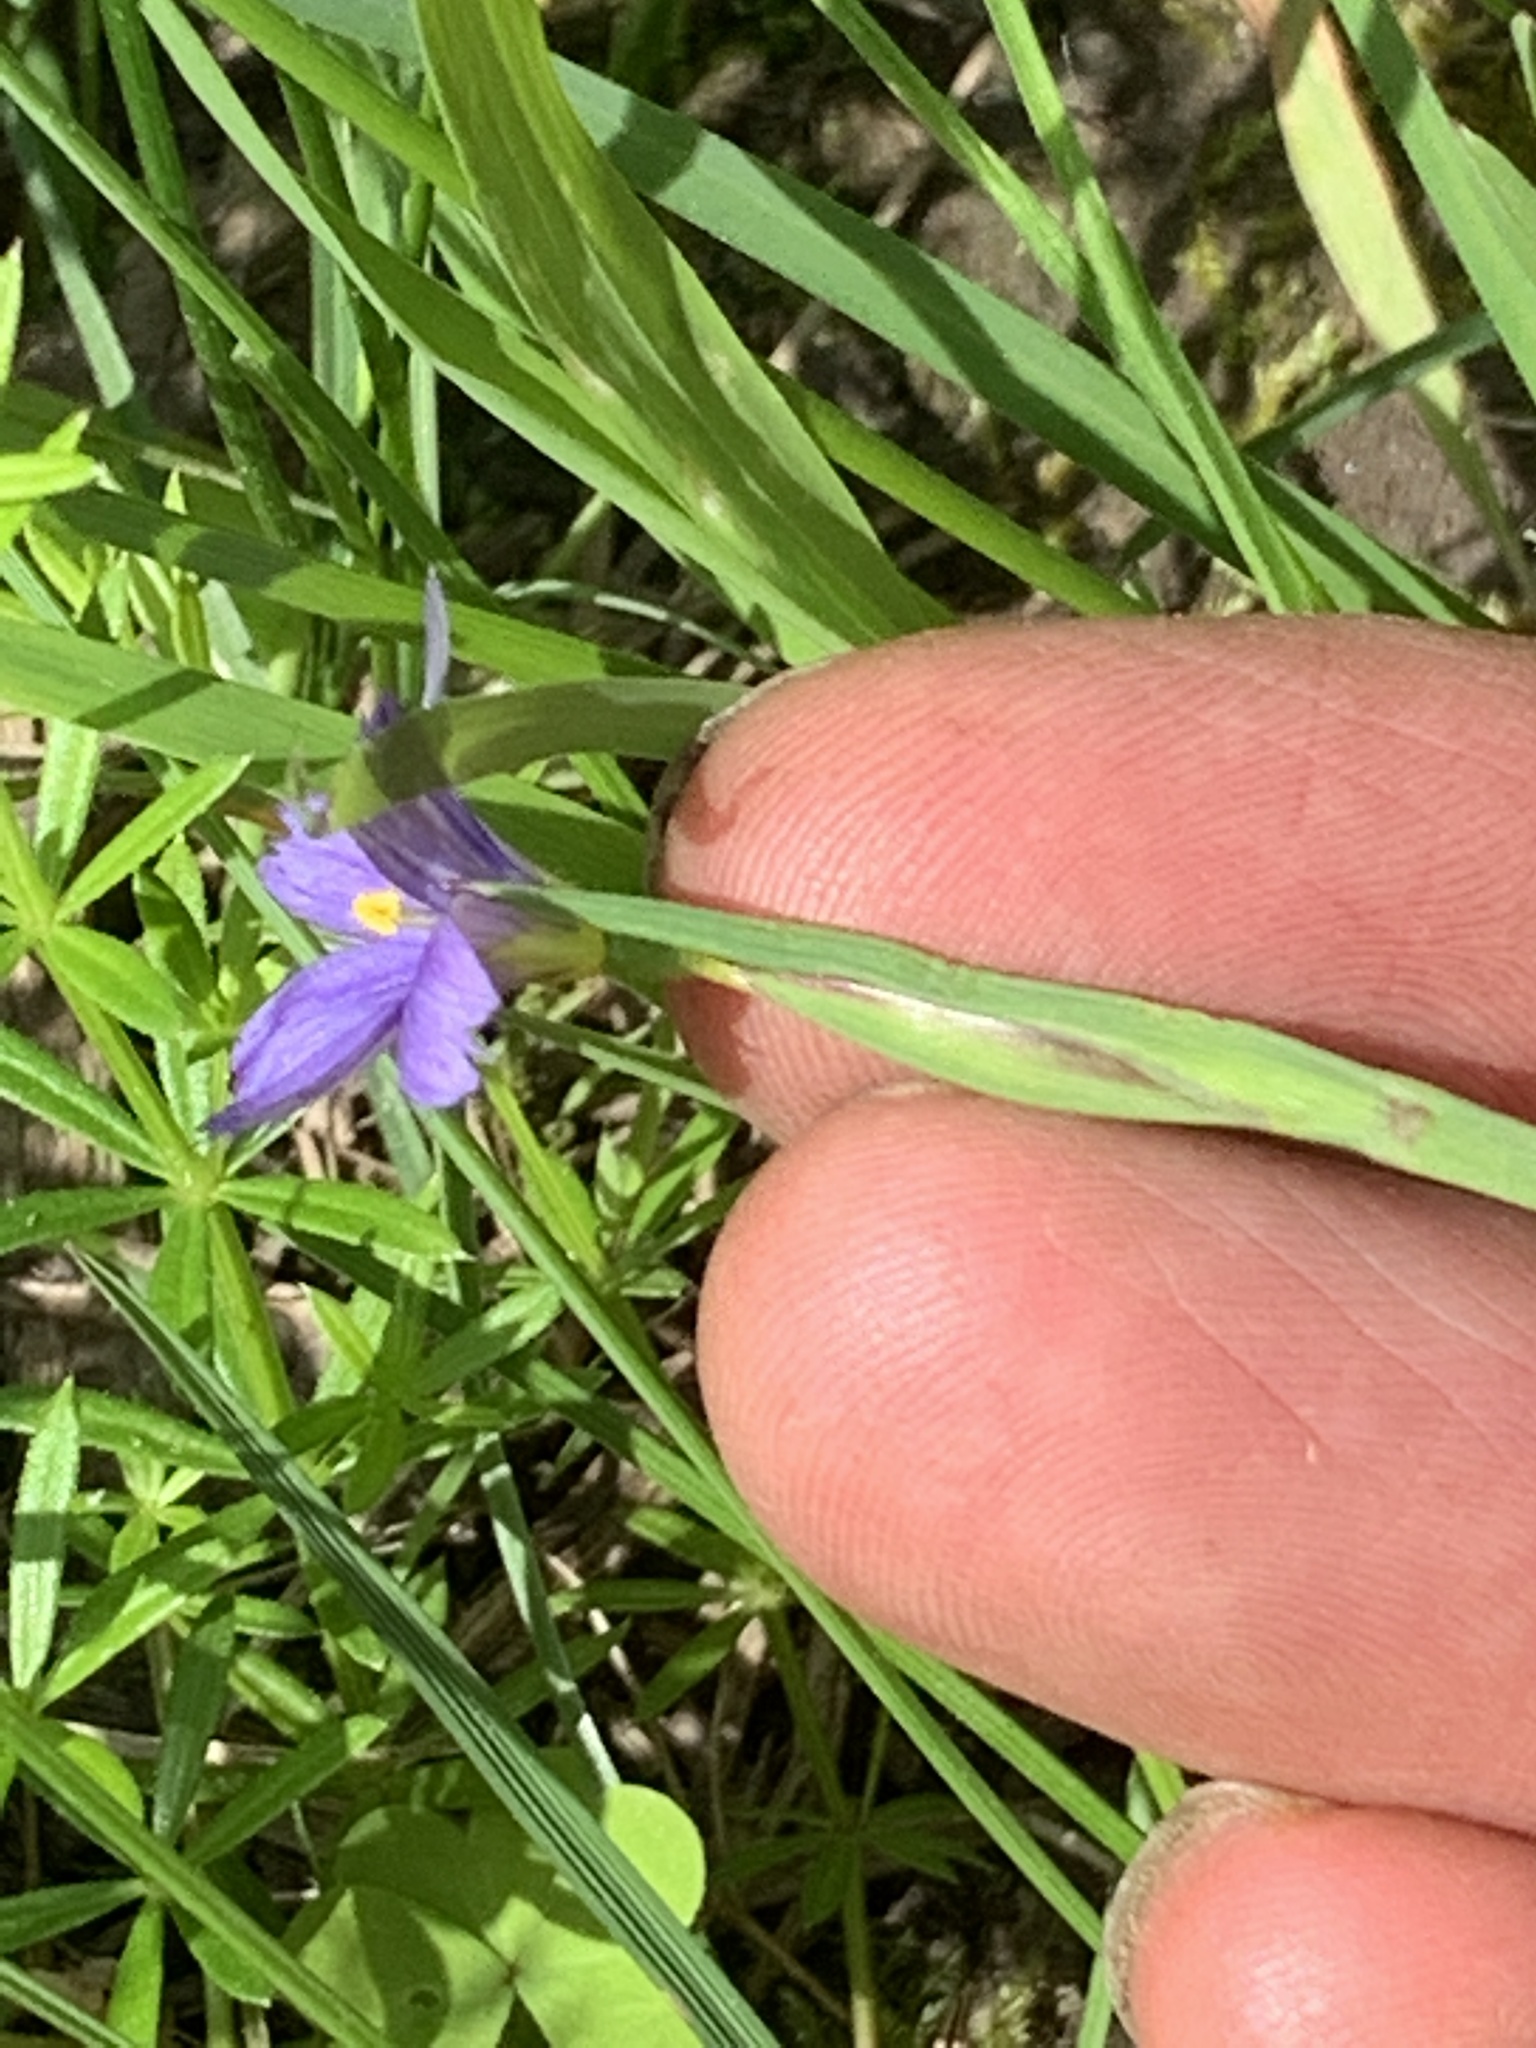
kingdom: Plantae
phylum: Tracheophyta
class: Liliopsida
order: Asparagales
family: Iridaceae
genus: Sisyrinchium
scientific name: Sisyrinchium montanum
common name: American blue-eyed-grass
